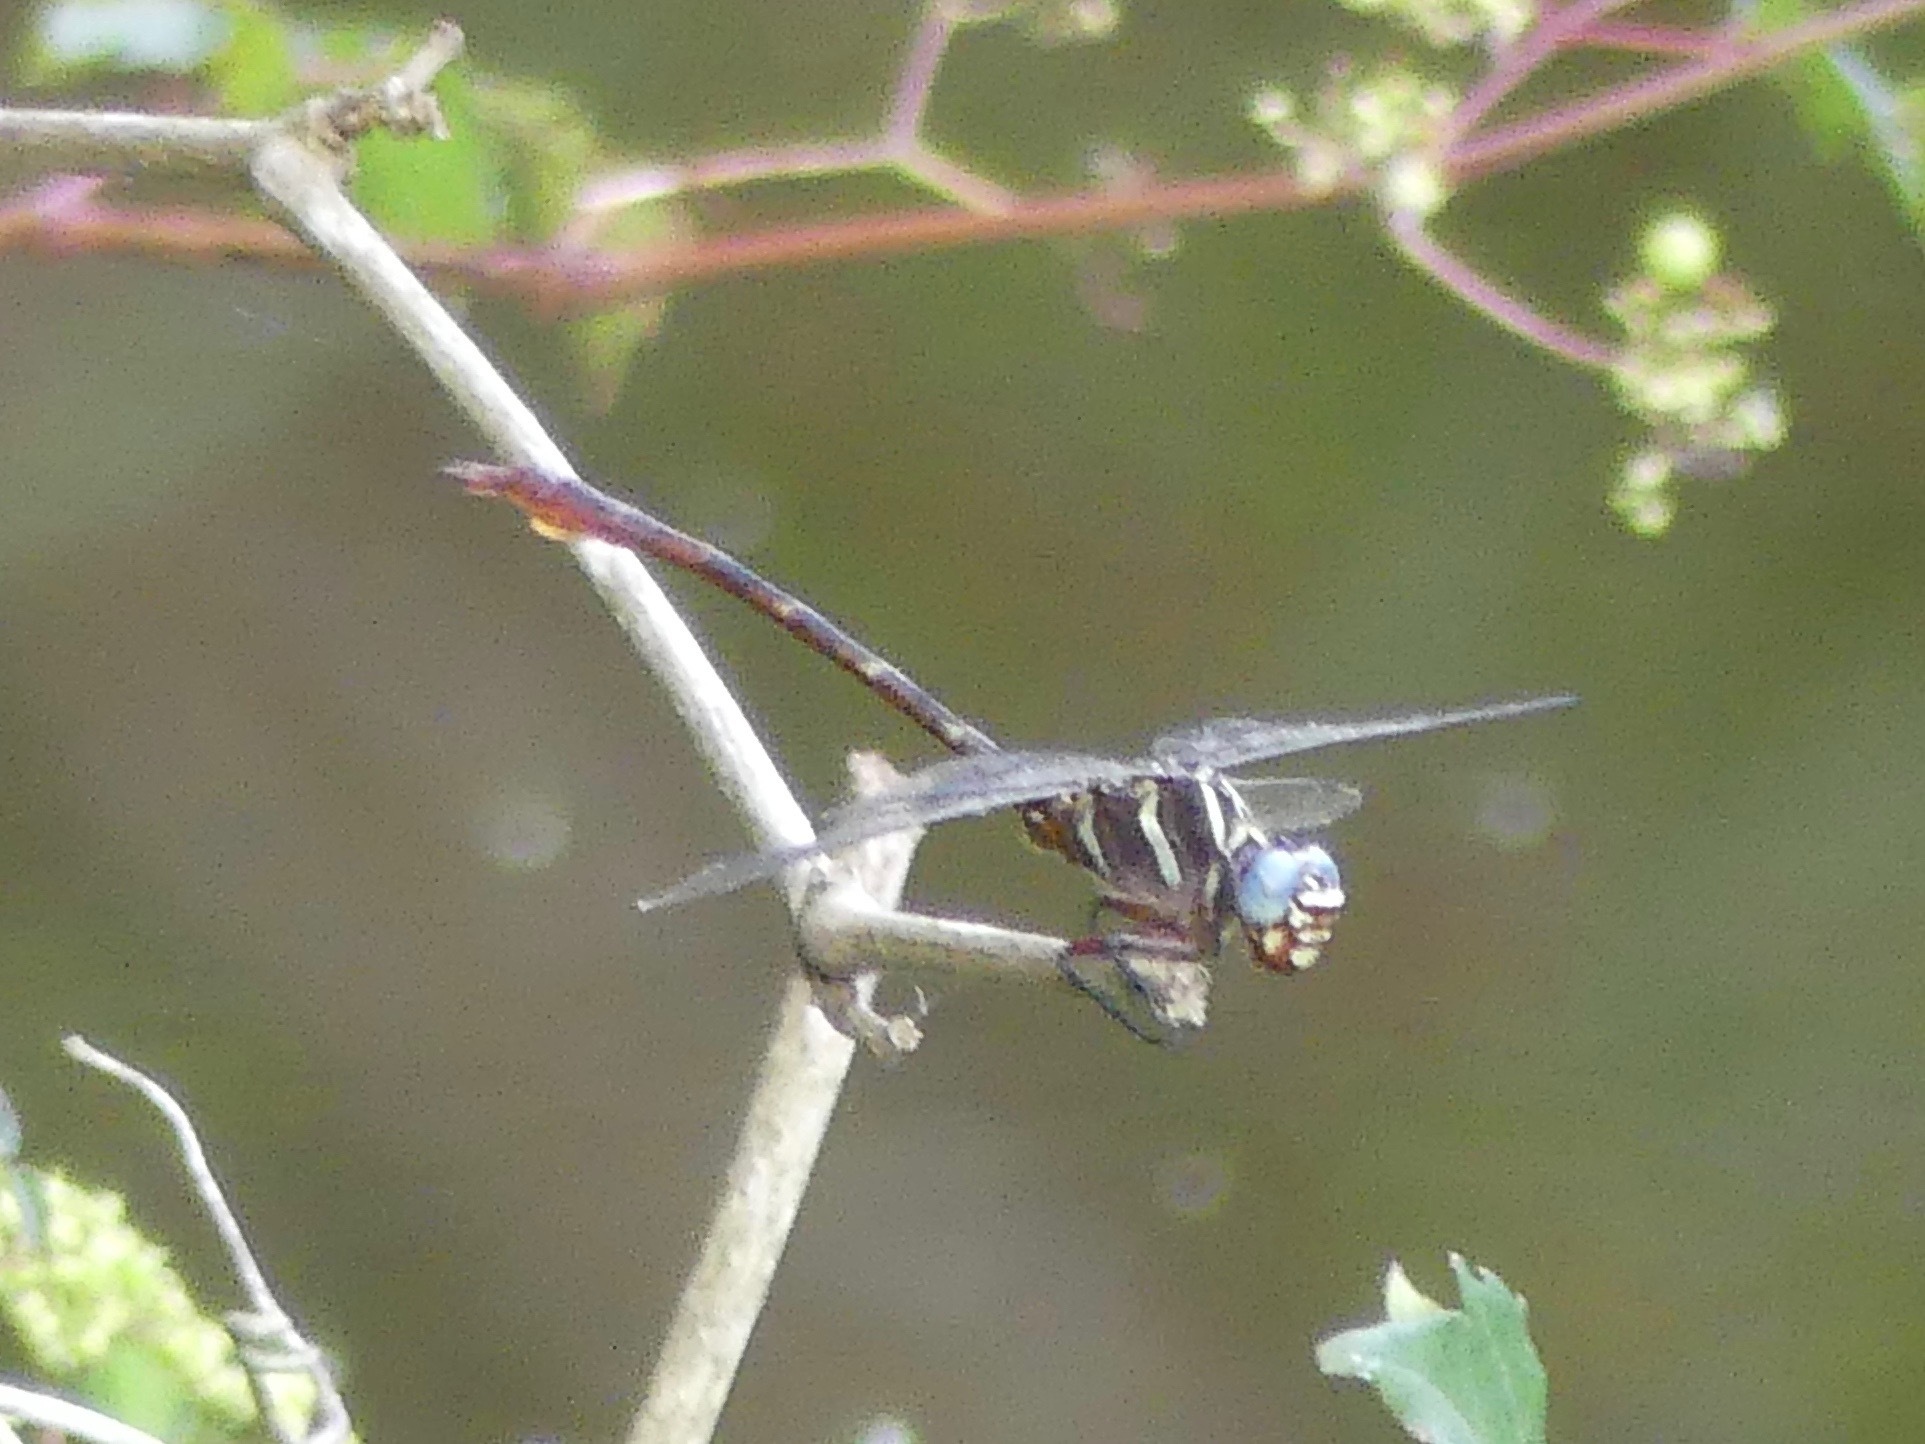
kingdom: Animalia
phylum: Arthropoda
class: Insecta
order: Odonata
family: Gomphidae
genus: Aphylla
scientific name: Aphylla williamsoni
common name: Two-striped forceptail
